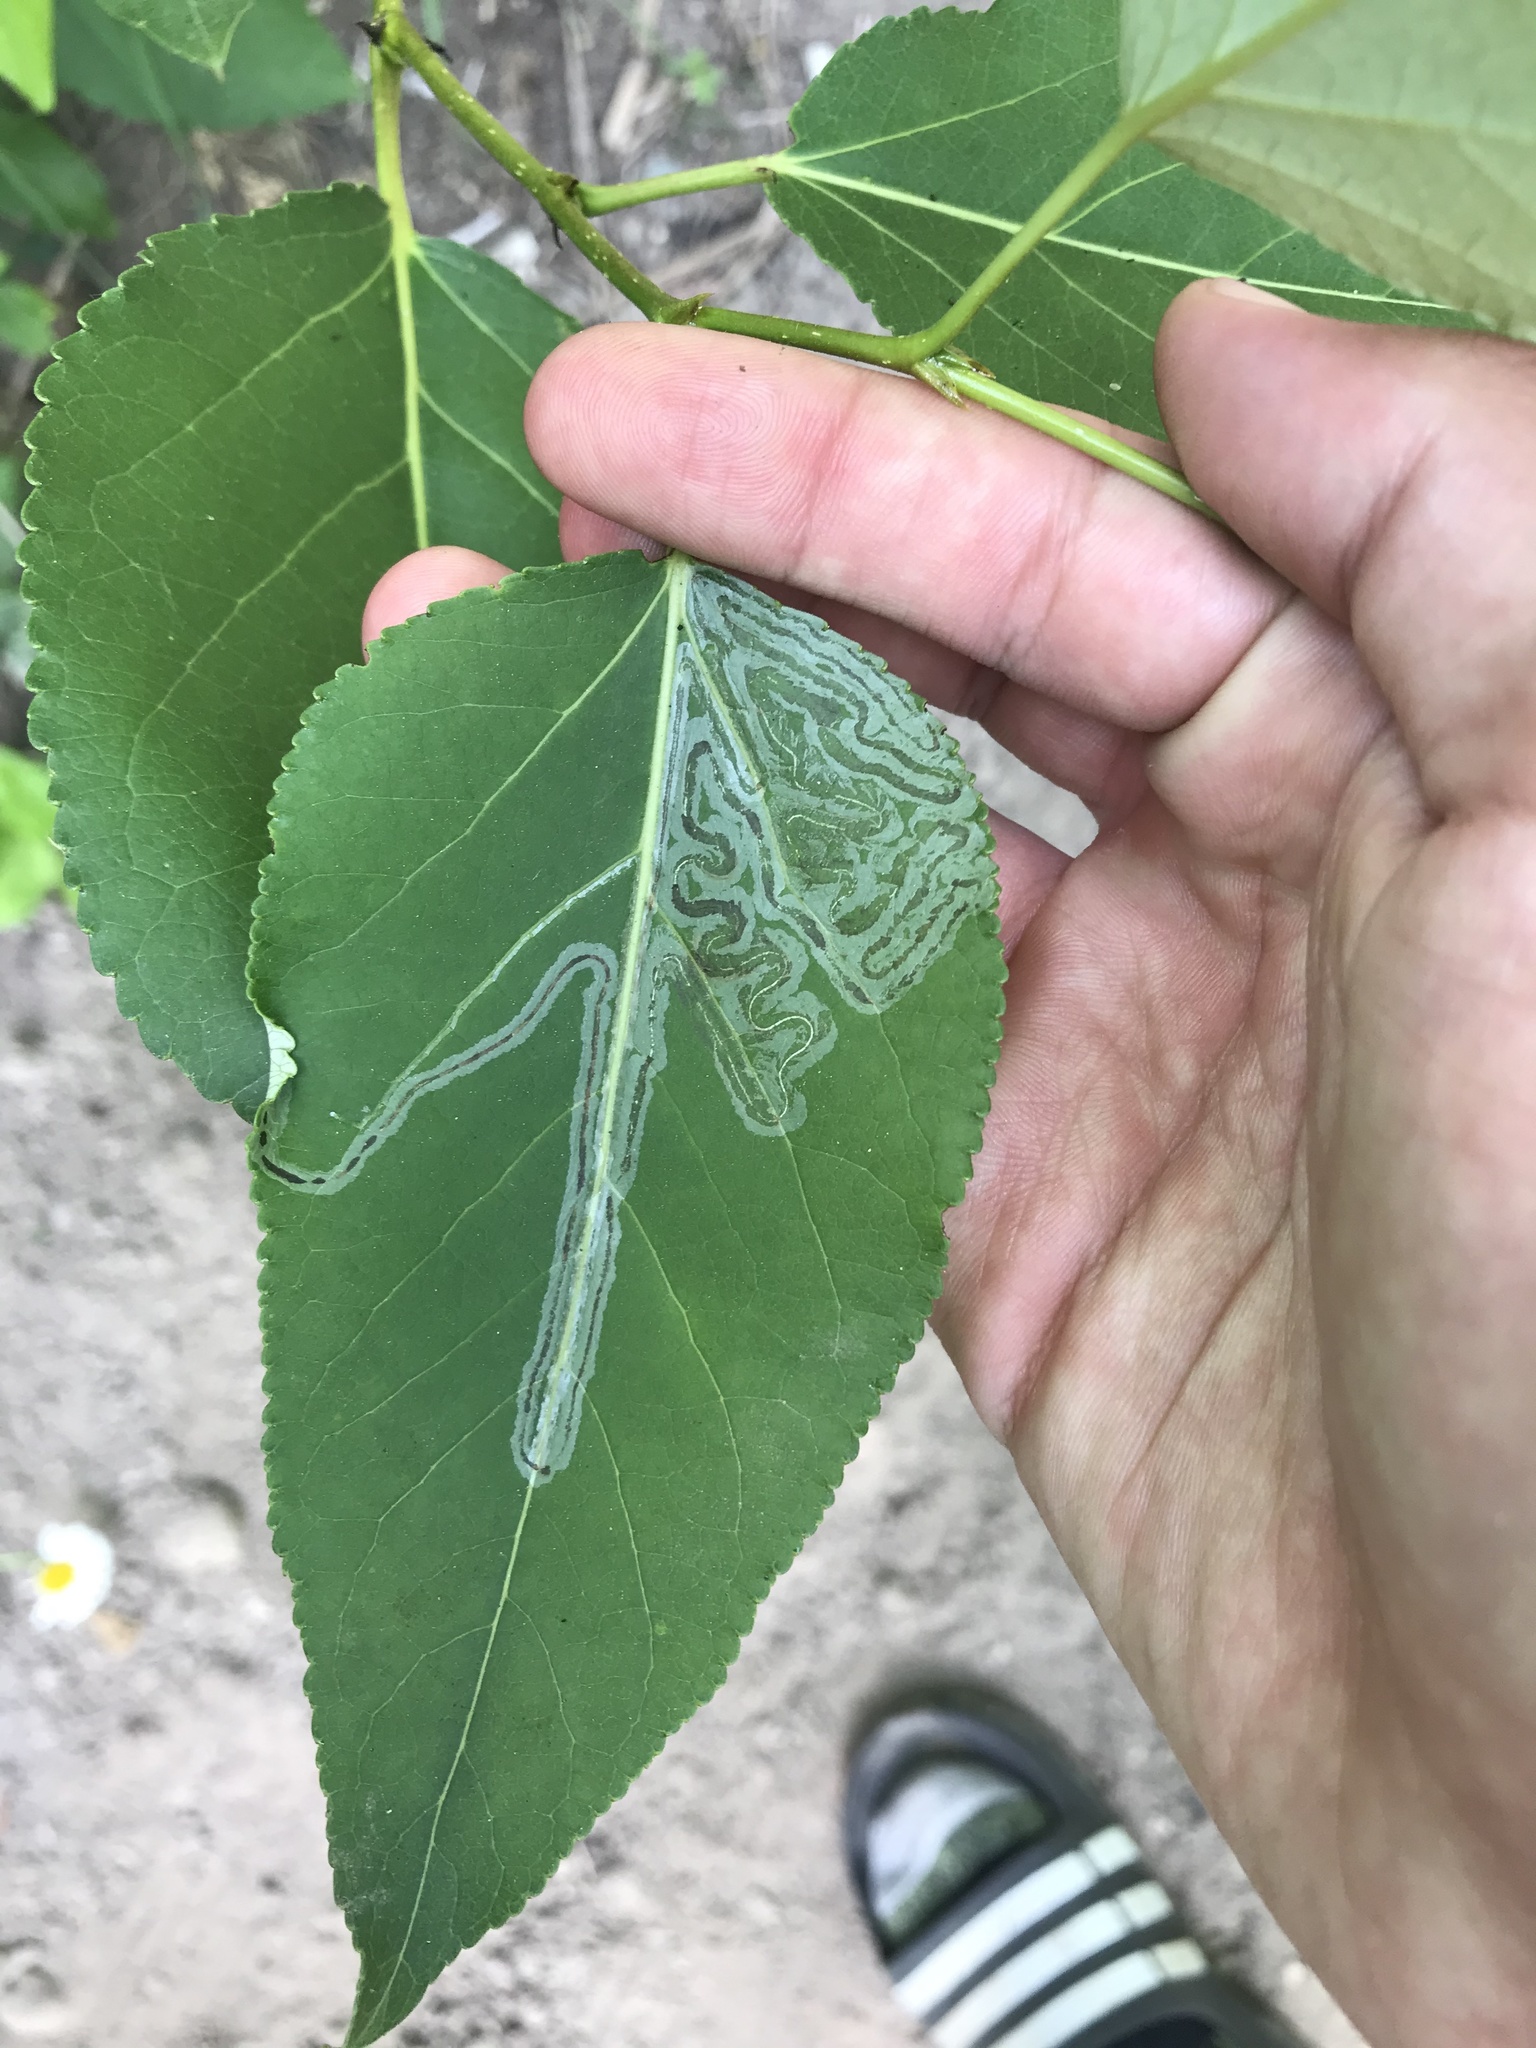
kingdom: Animalia
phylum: Arthropoda
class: Insecta
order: Lepidoptera
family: Gracillariidae
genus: Phyllocnistis
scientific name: Phyllocnistis populiella
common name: Aspen serpentine leafminer moth
